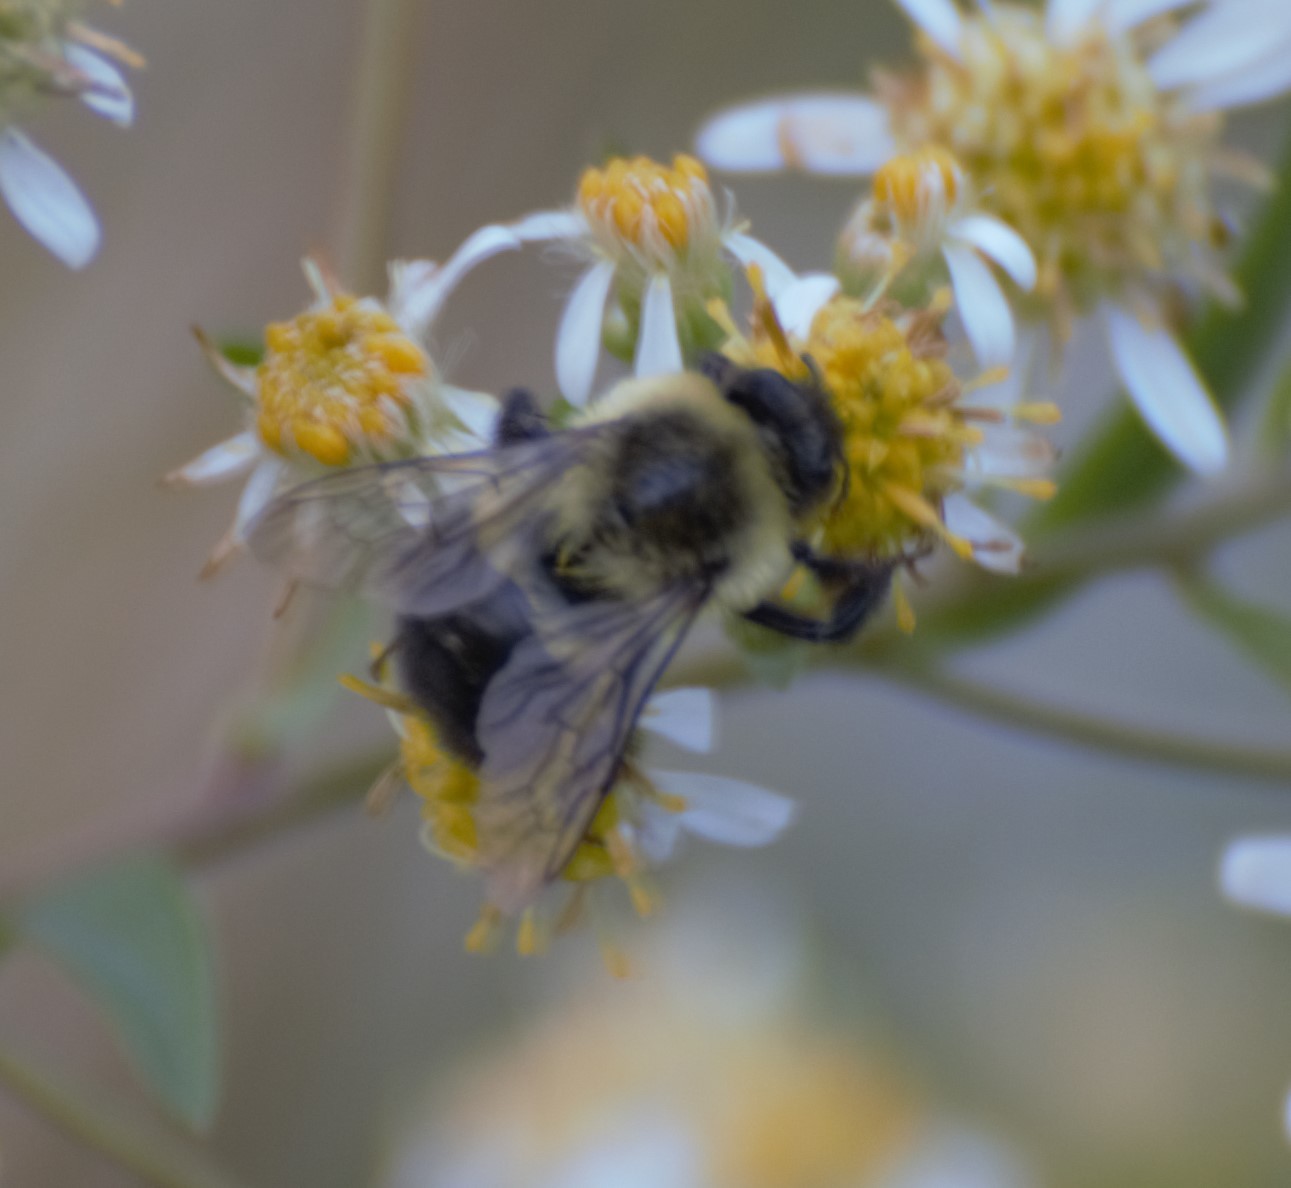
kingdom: Animalia
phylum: Arthropoda
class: Insecta
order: Hymenoptera
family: Apidae
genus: Bombus
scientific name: Bombus impatiens
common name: Common eastern bumble bee
